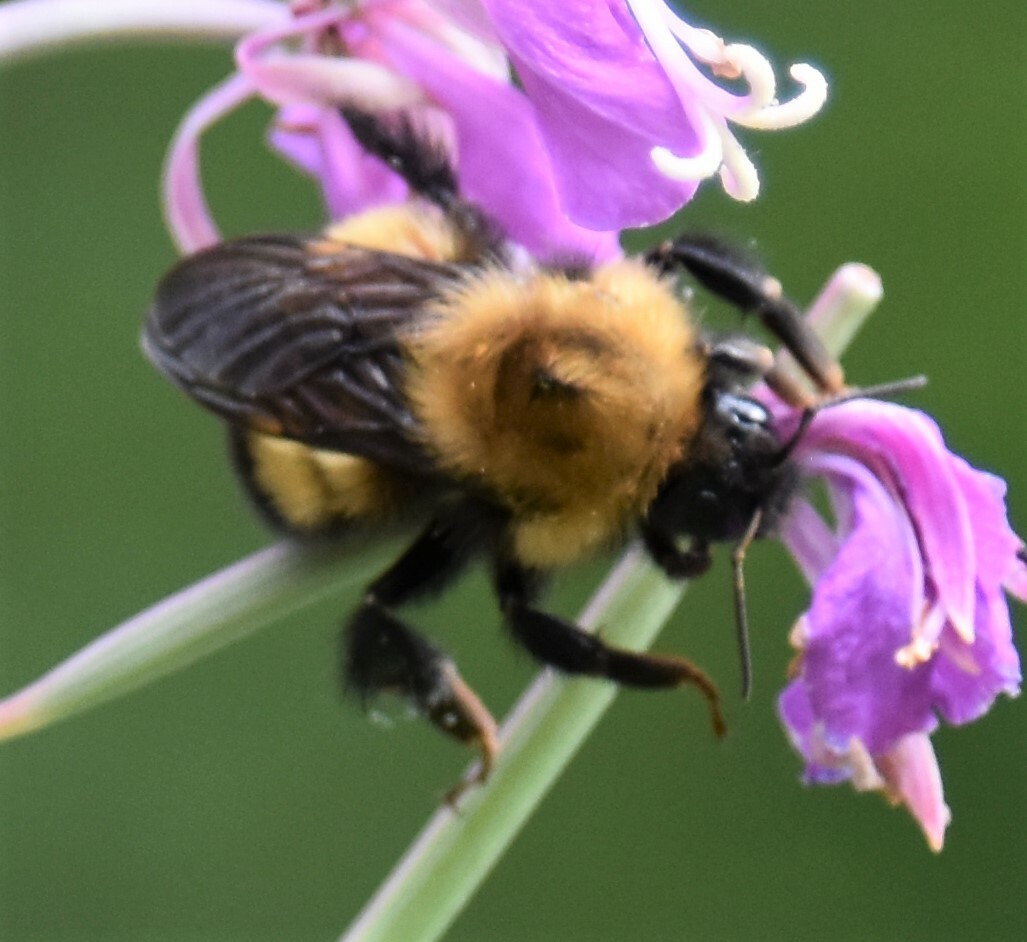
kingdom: Animalia
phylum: Arthropoda
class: Insecta
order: Hymenoptera
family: Apidae
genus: Bombus
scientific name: Bombus perplexus
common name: Confusing bumble bee
